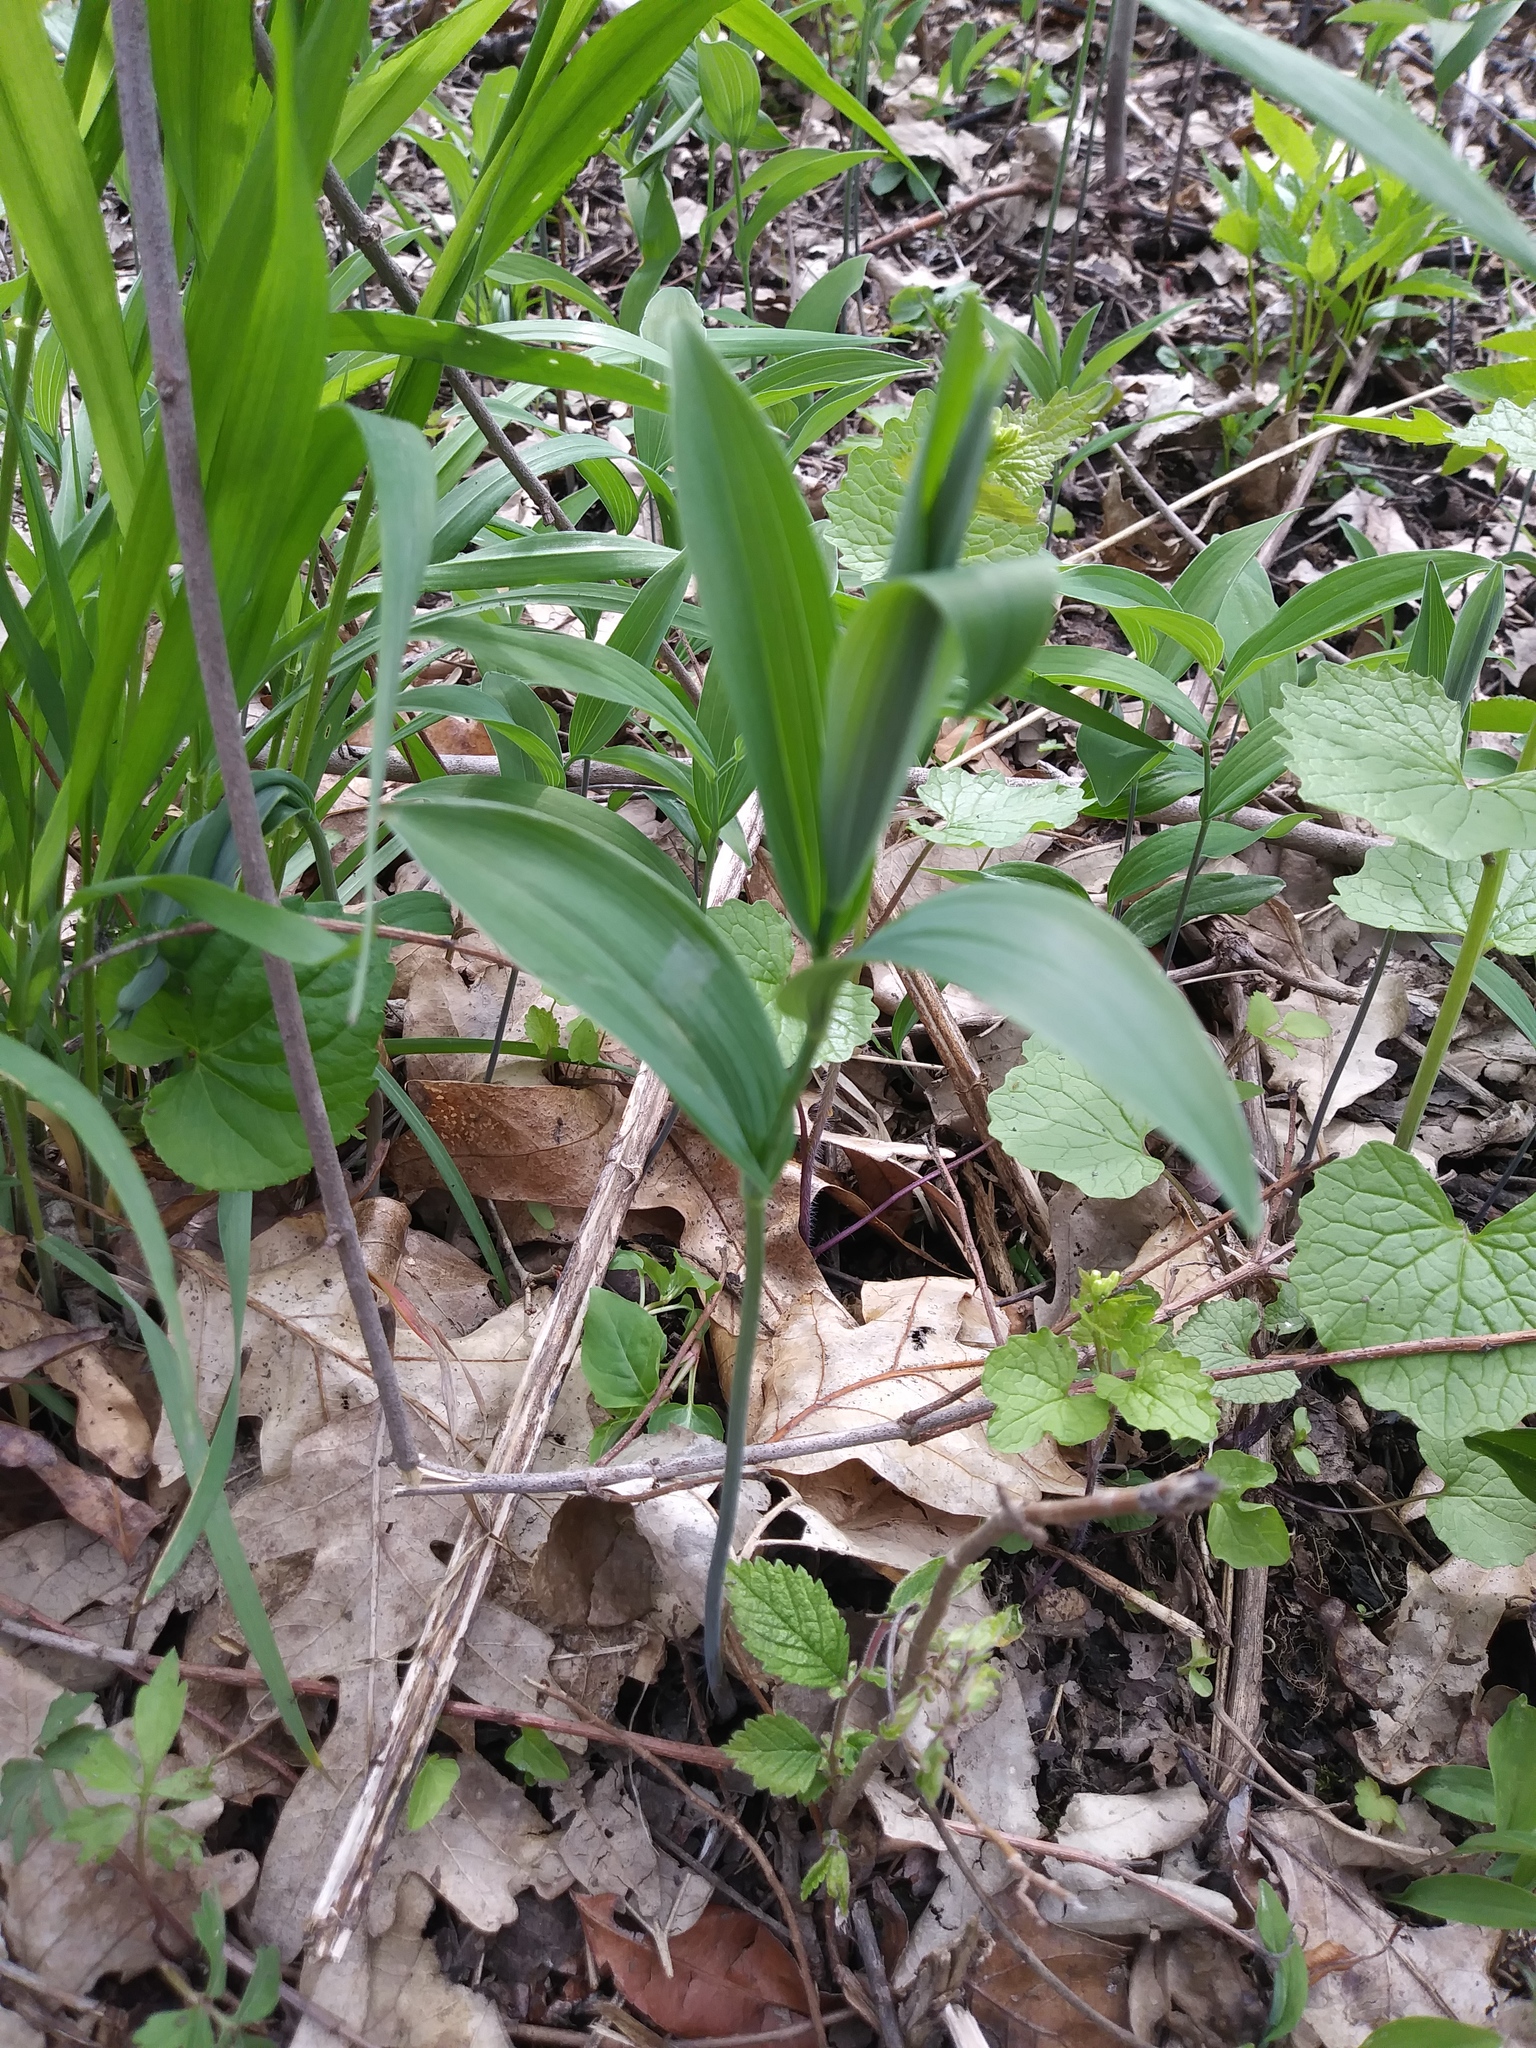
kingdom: Plantae
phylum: Tracheophyta
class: Liliopsida
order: Asparagales
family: Asparagaceae
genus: Maianthemum
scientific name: Maianthemum stellatum
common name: Little false solomon's seal
